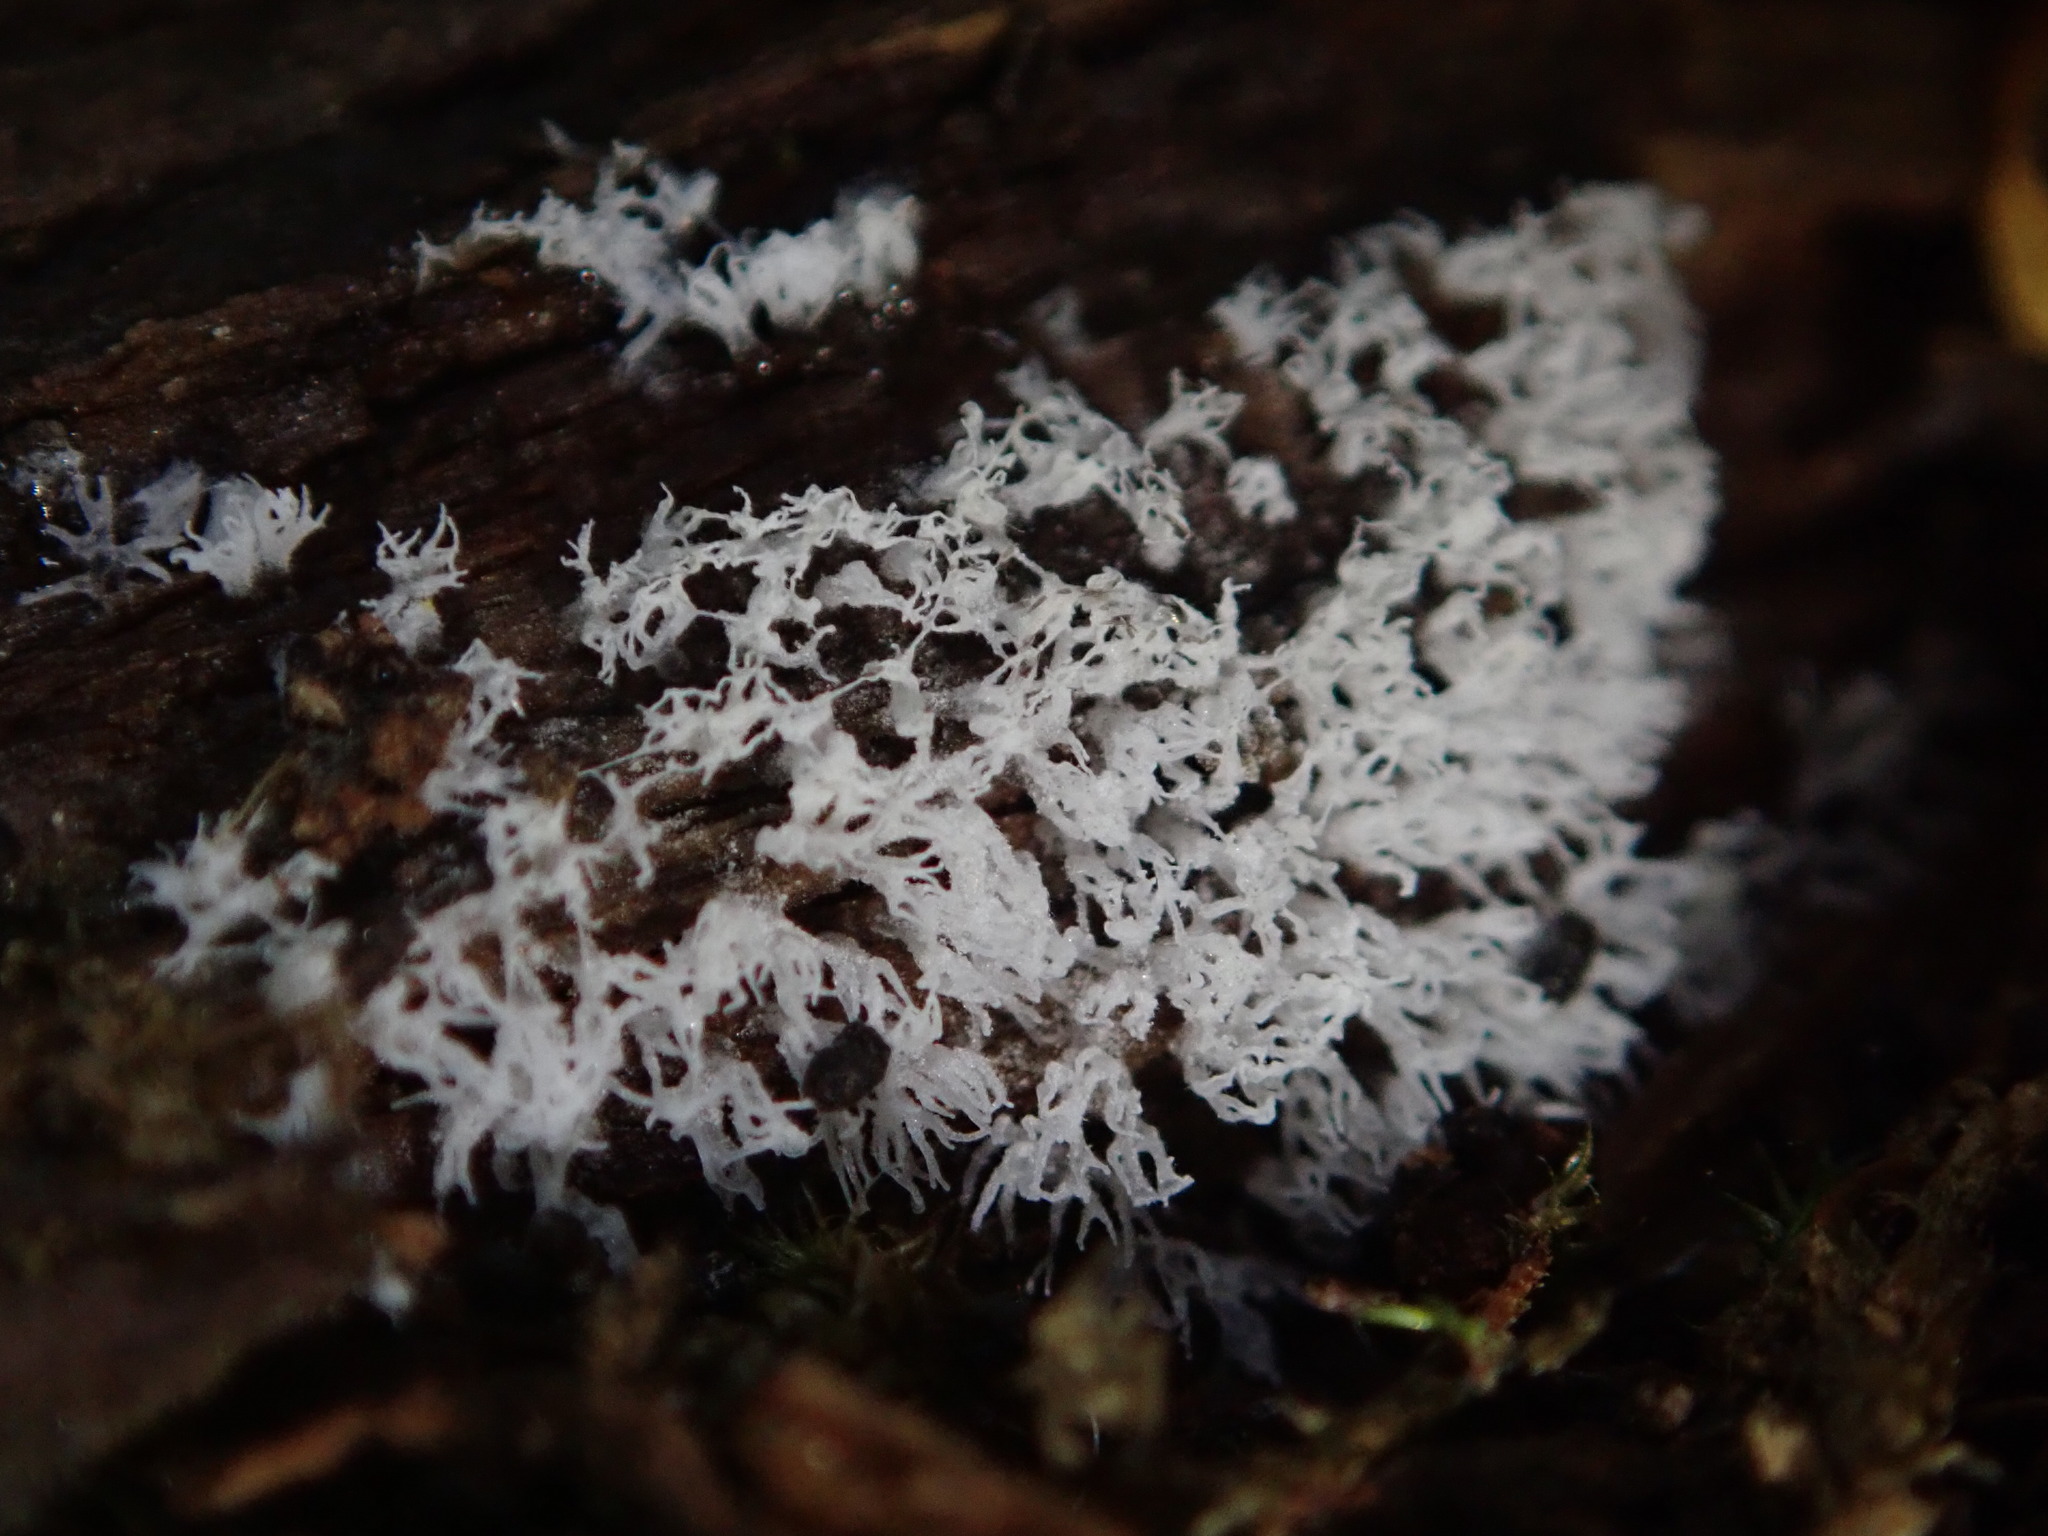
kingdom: Protozoa
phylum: Mycetozoa
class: Protosteliomycetes
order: Ceratiomyxales
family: Ceratiomyxaceae
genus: Ceratiomyxa
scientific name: Ceratiomyxa fruticulosa
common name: Honeycomb coral slime mold
